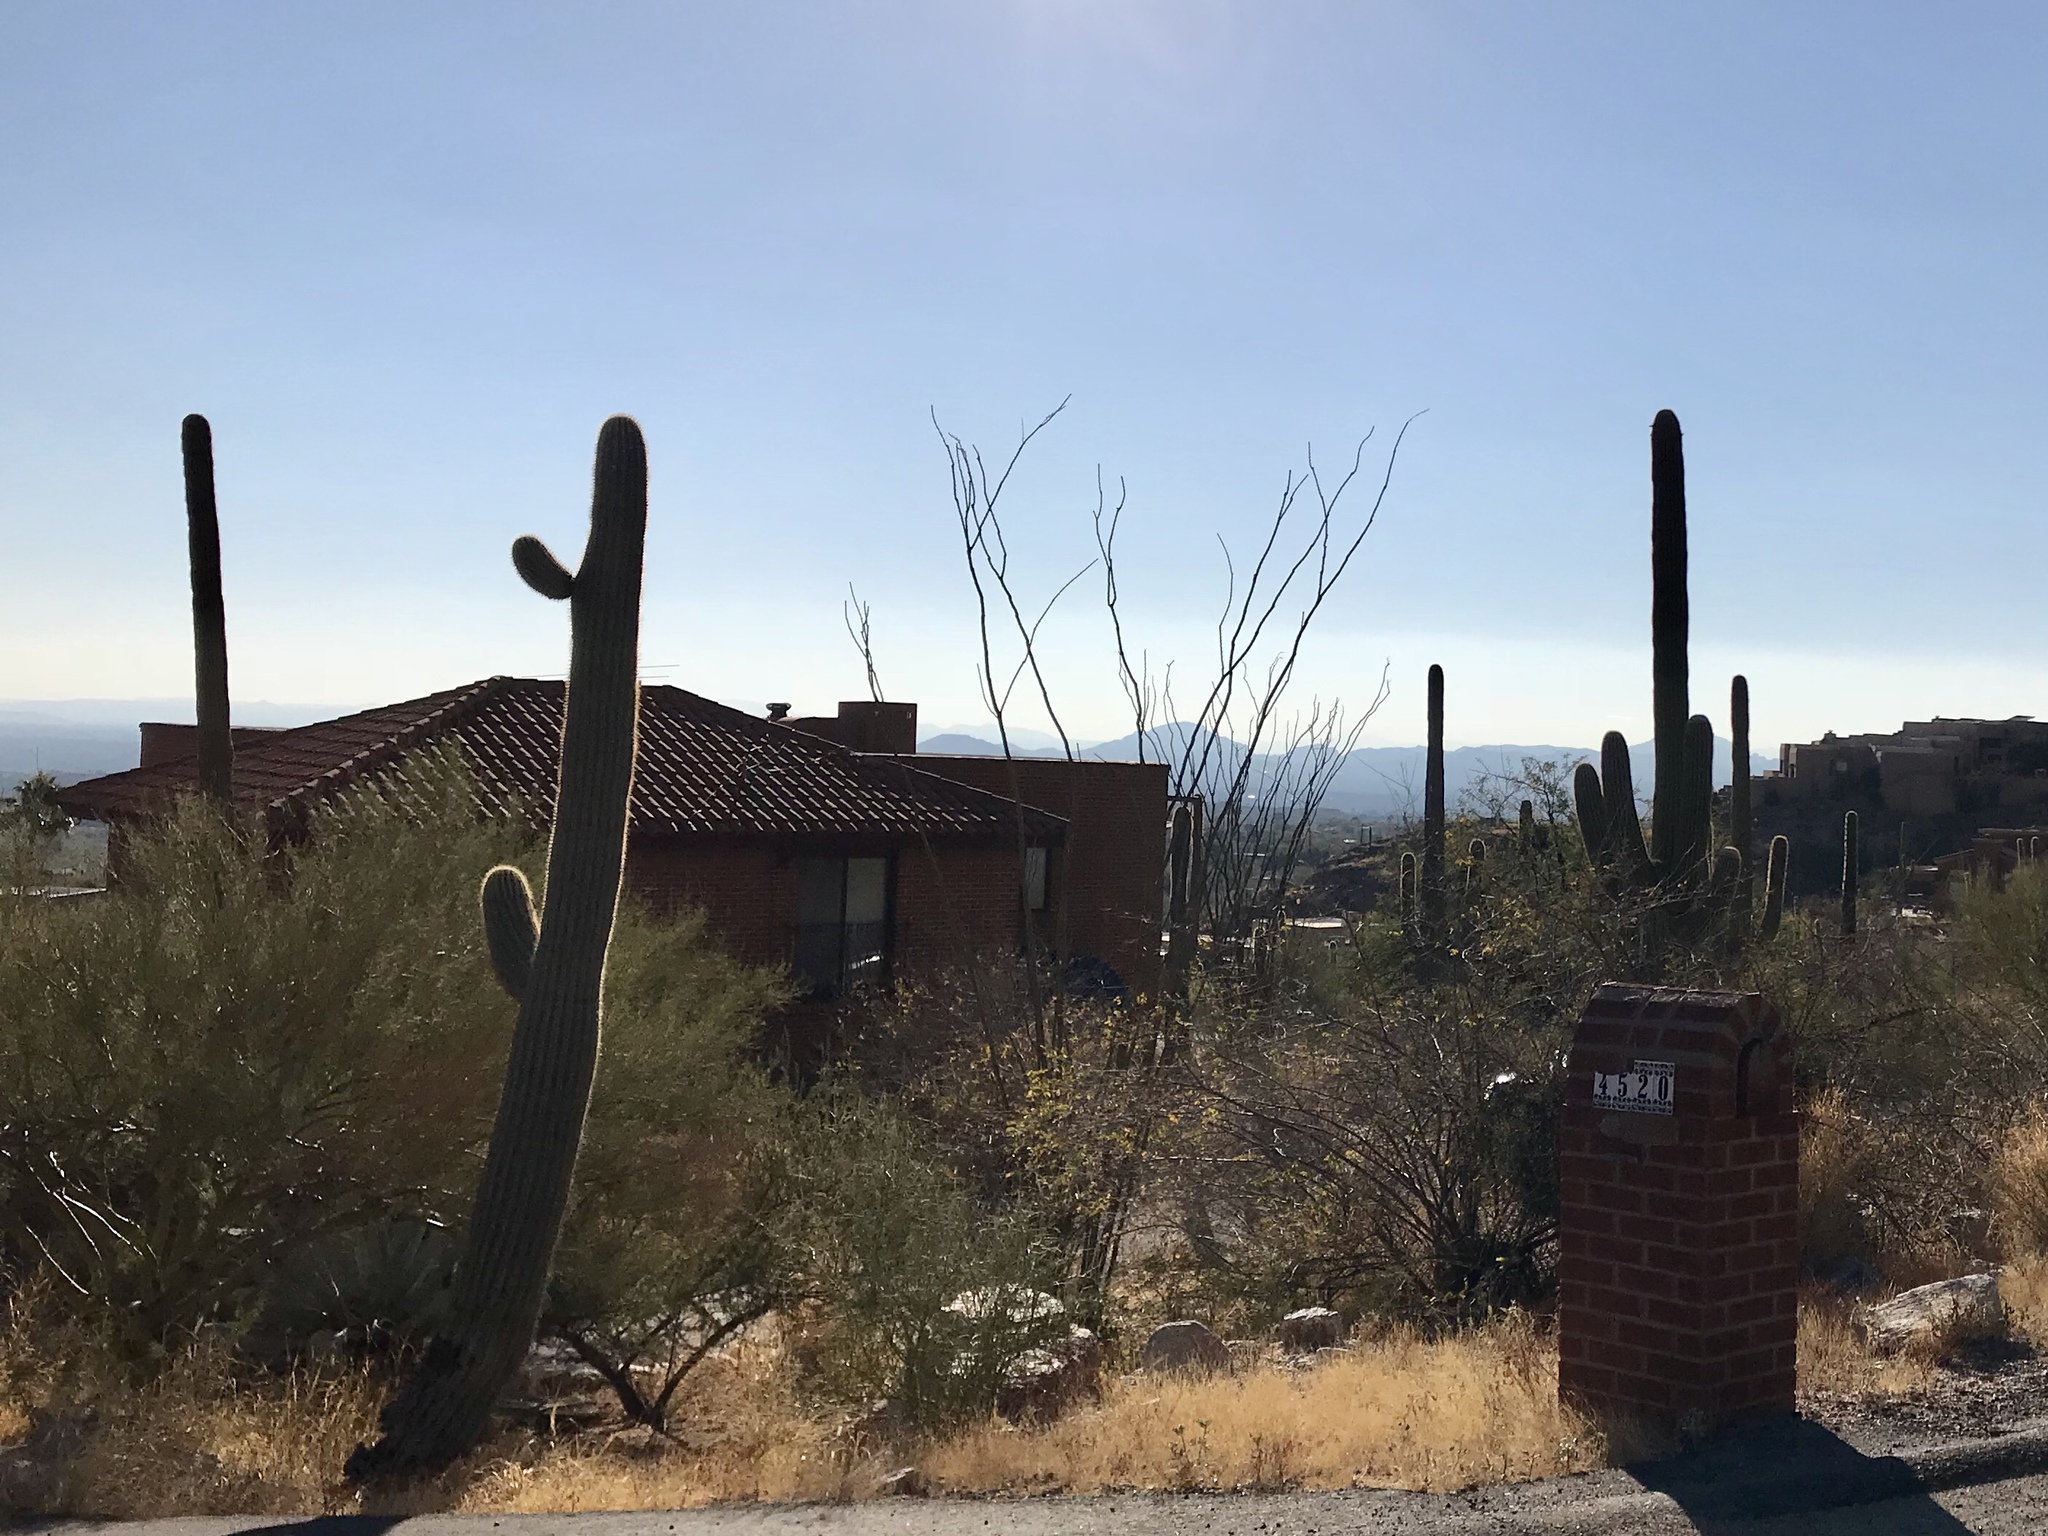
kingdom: Plantae
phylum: Tracheophyta
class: Magnoliopsida
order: Caryophyllales
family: Cactaceae
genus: Carnegiea
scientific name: Carnegiea gigantea
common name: Saguaro
